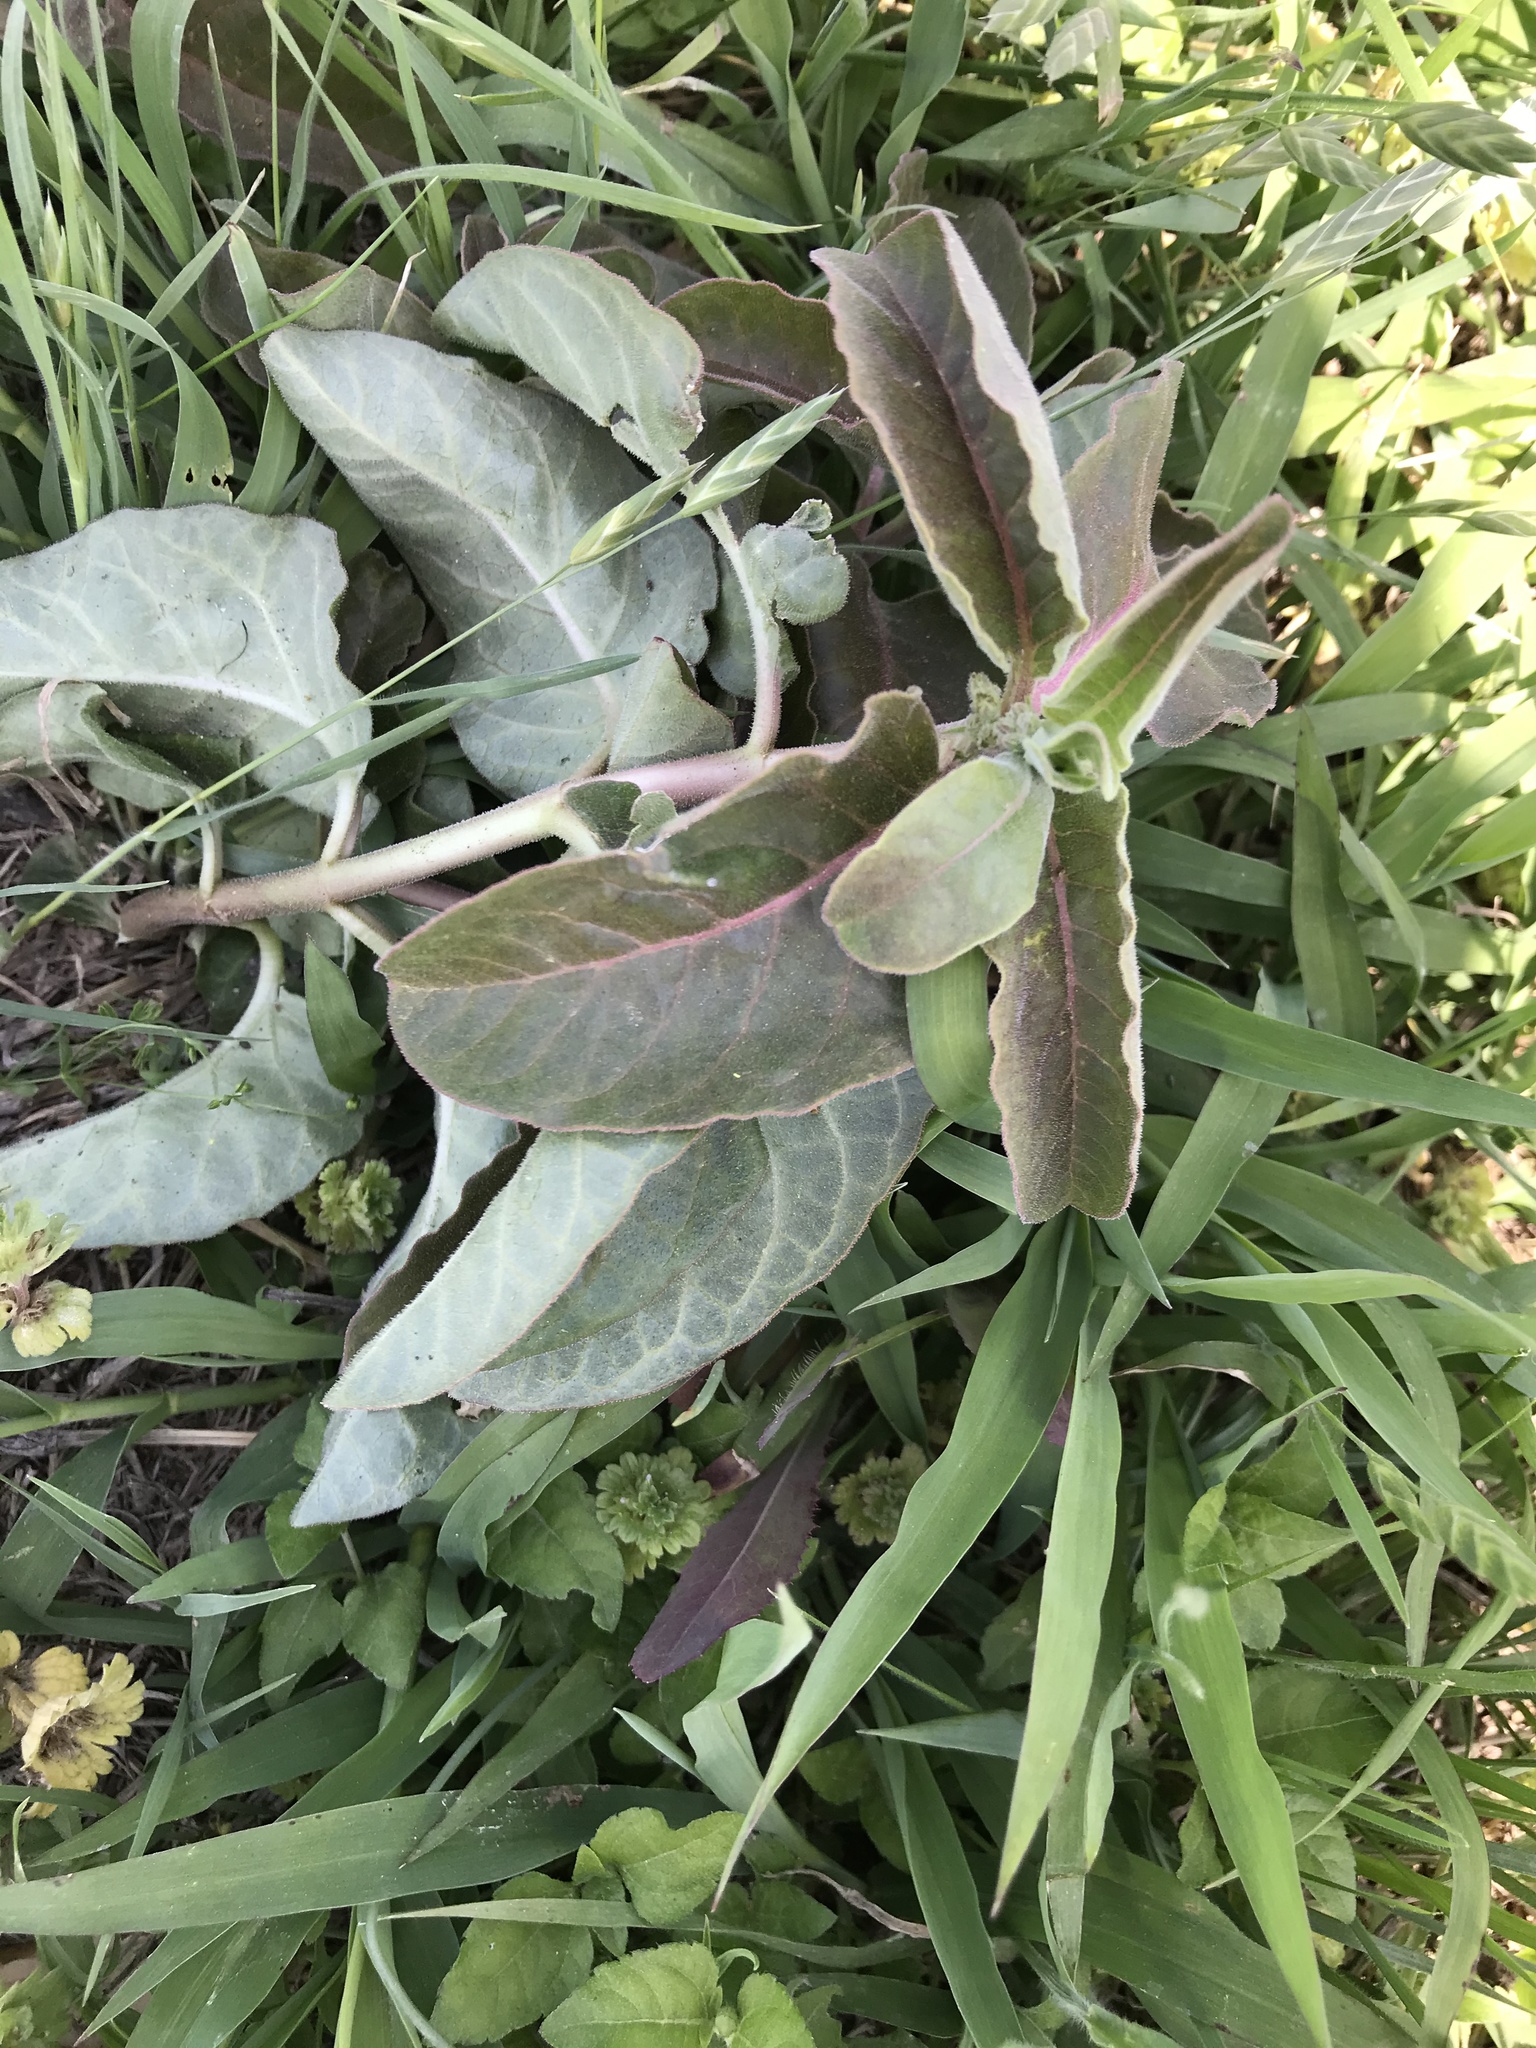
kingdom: Plantae
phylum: Tracheophyta
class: Magnoliopsida
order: Gentianales
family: Apocynaceae
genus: Asclepias
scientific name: Asclepias oenotheroides
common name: Zizotes milkweed
